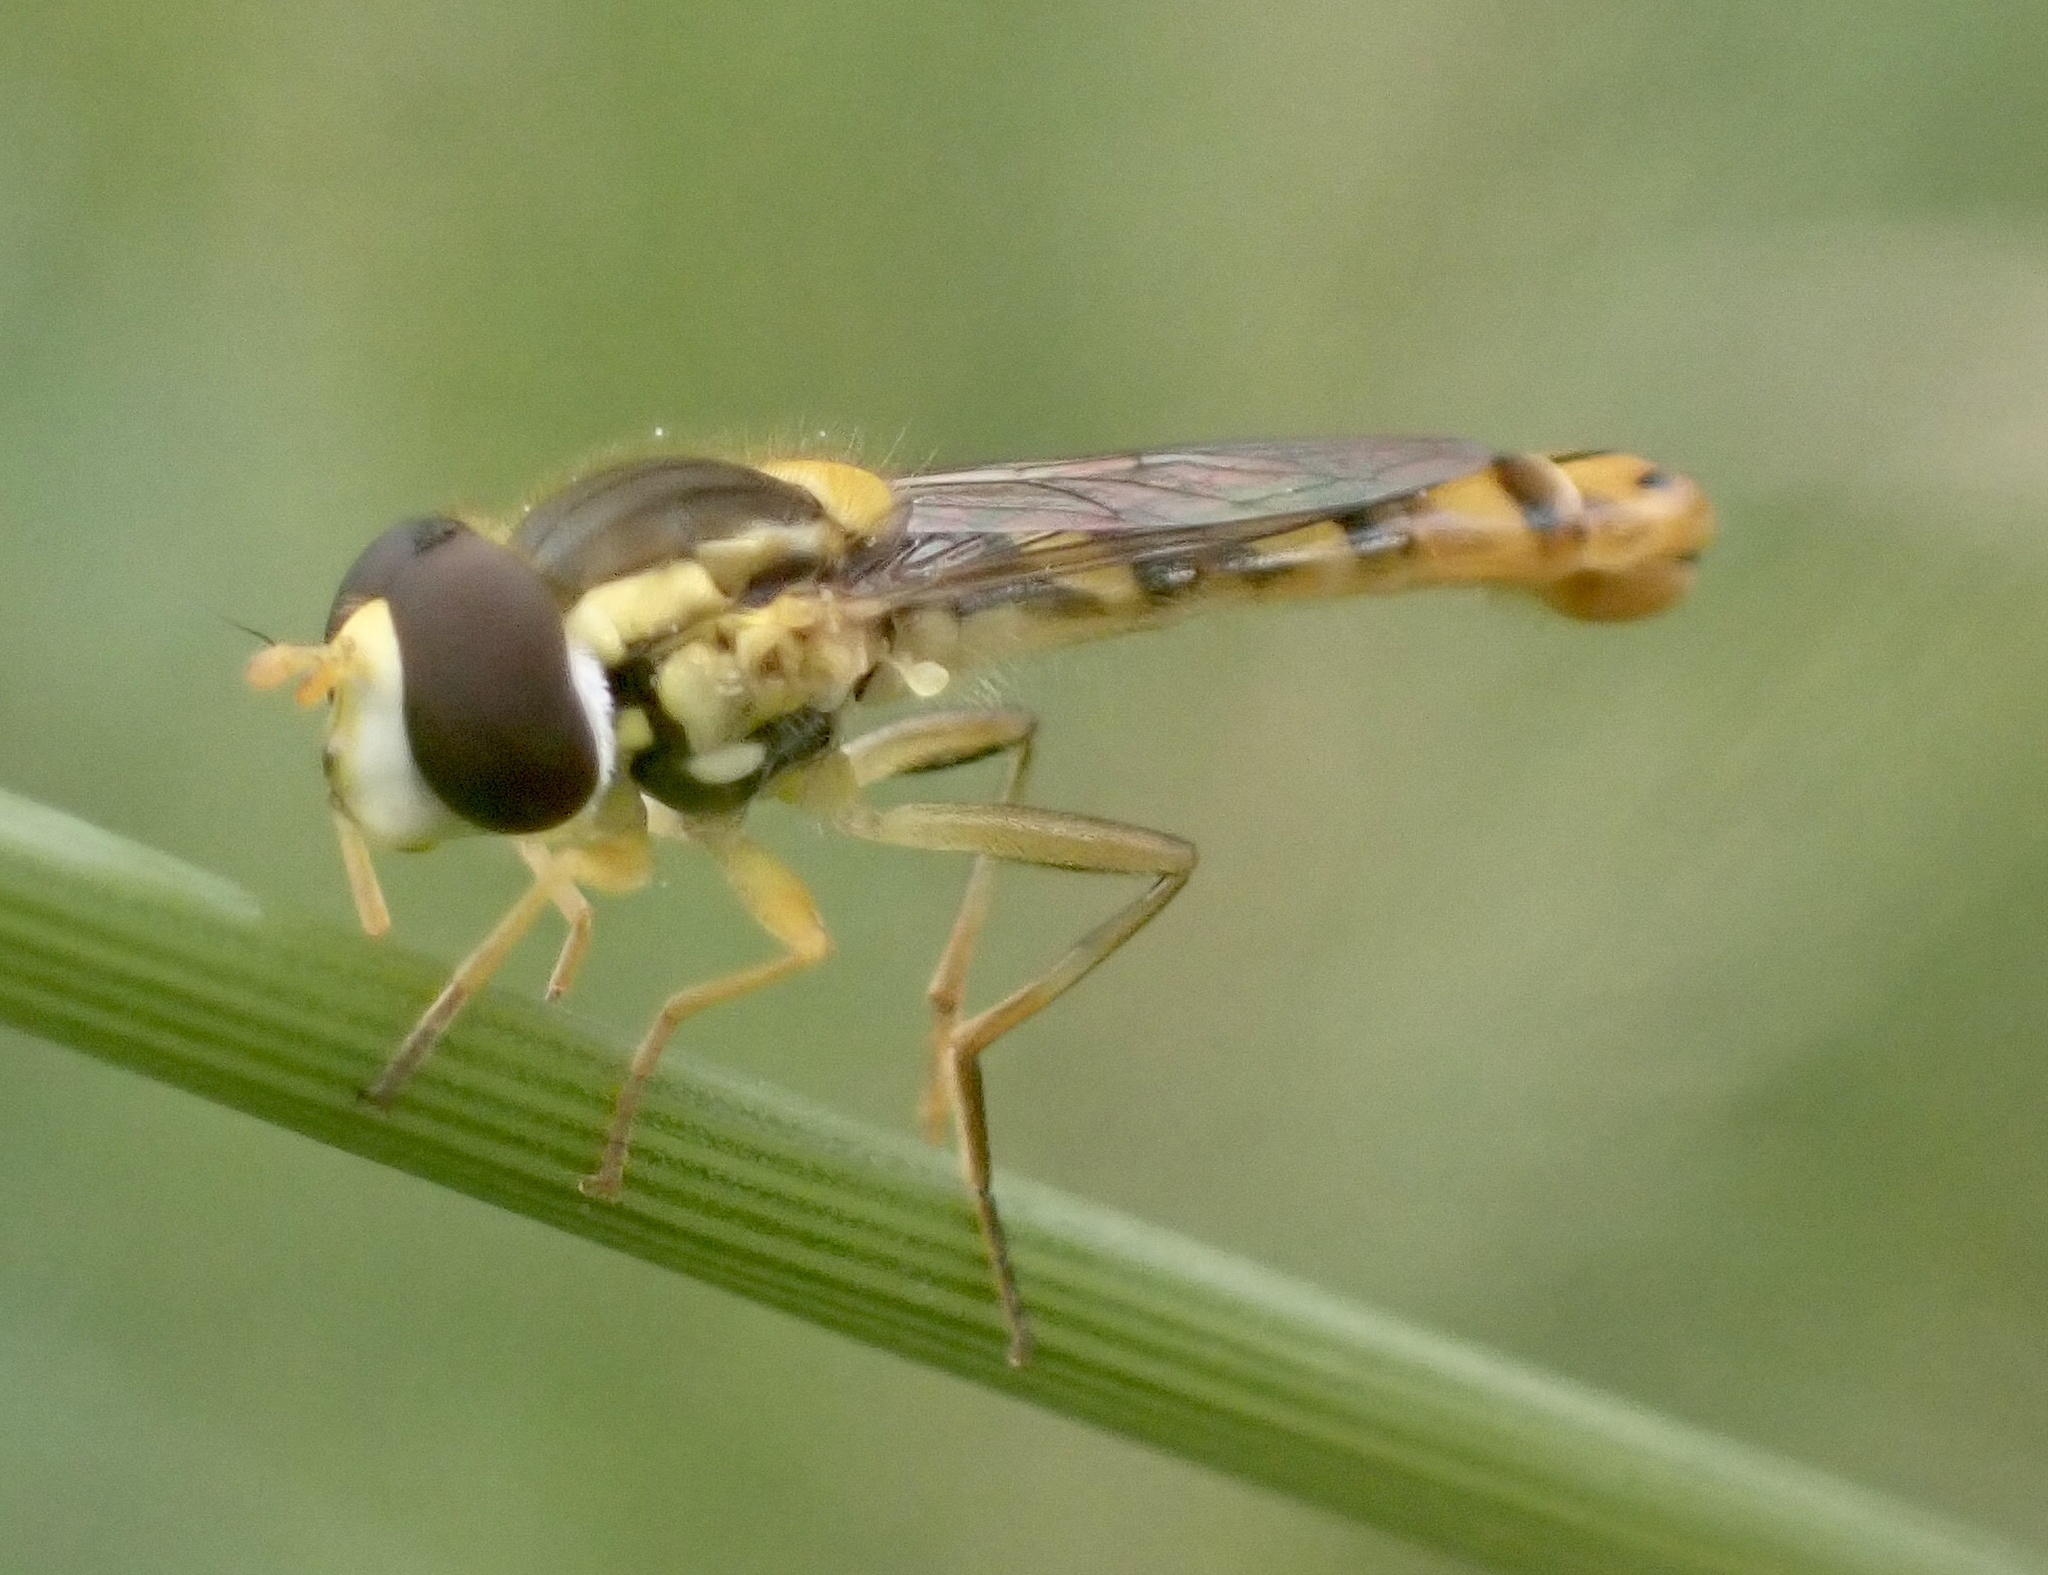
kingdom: Animalia
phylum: Arthropoda
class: Insecta
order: Diptera
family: Syrphidae
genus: Sphaerophoria
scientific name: Sphaerophoria scripta
